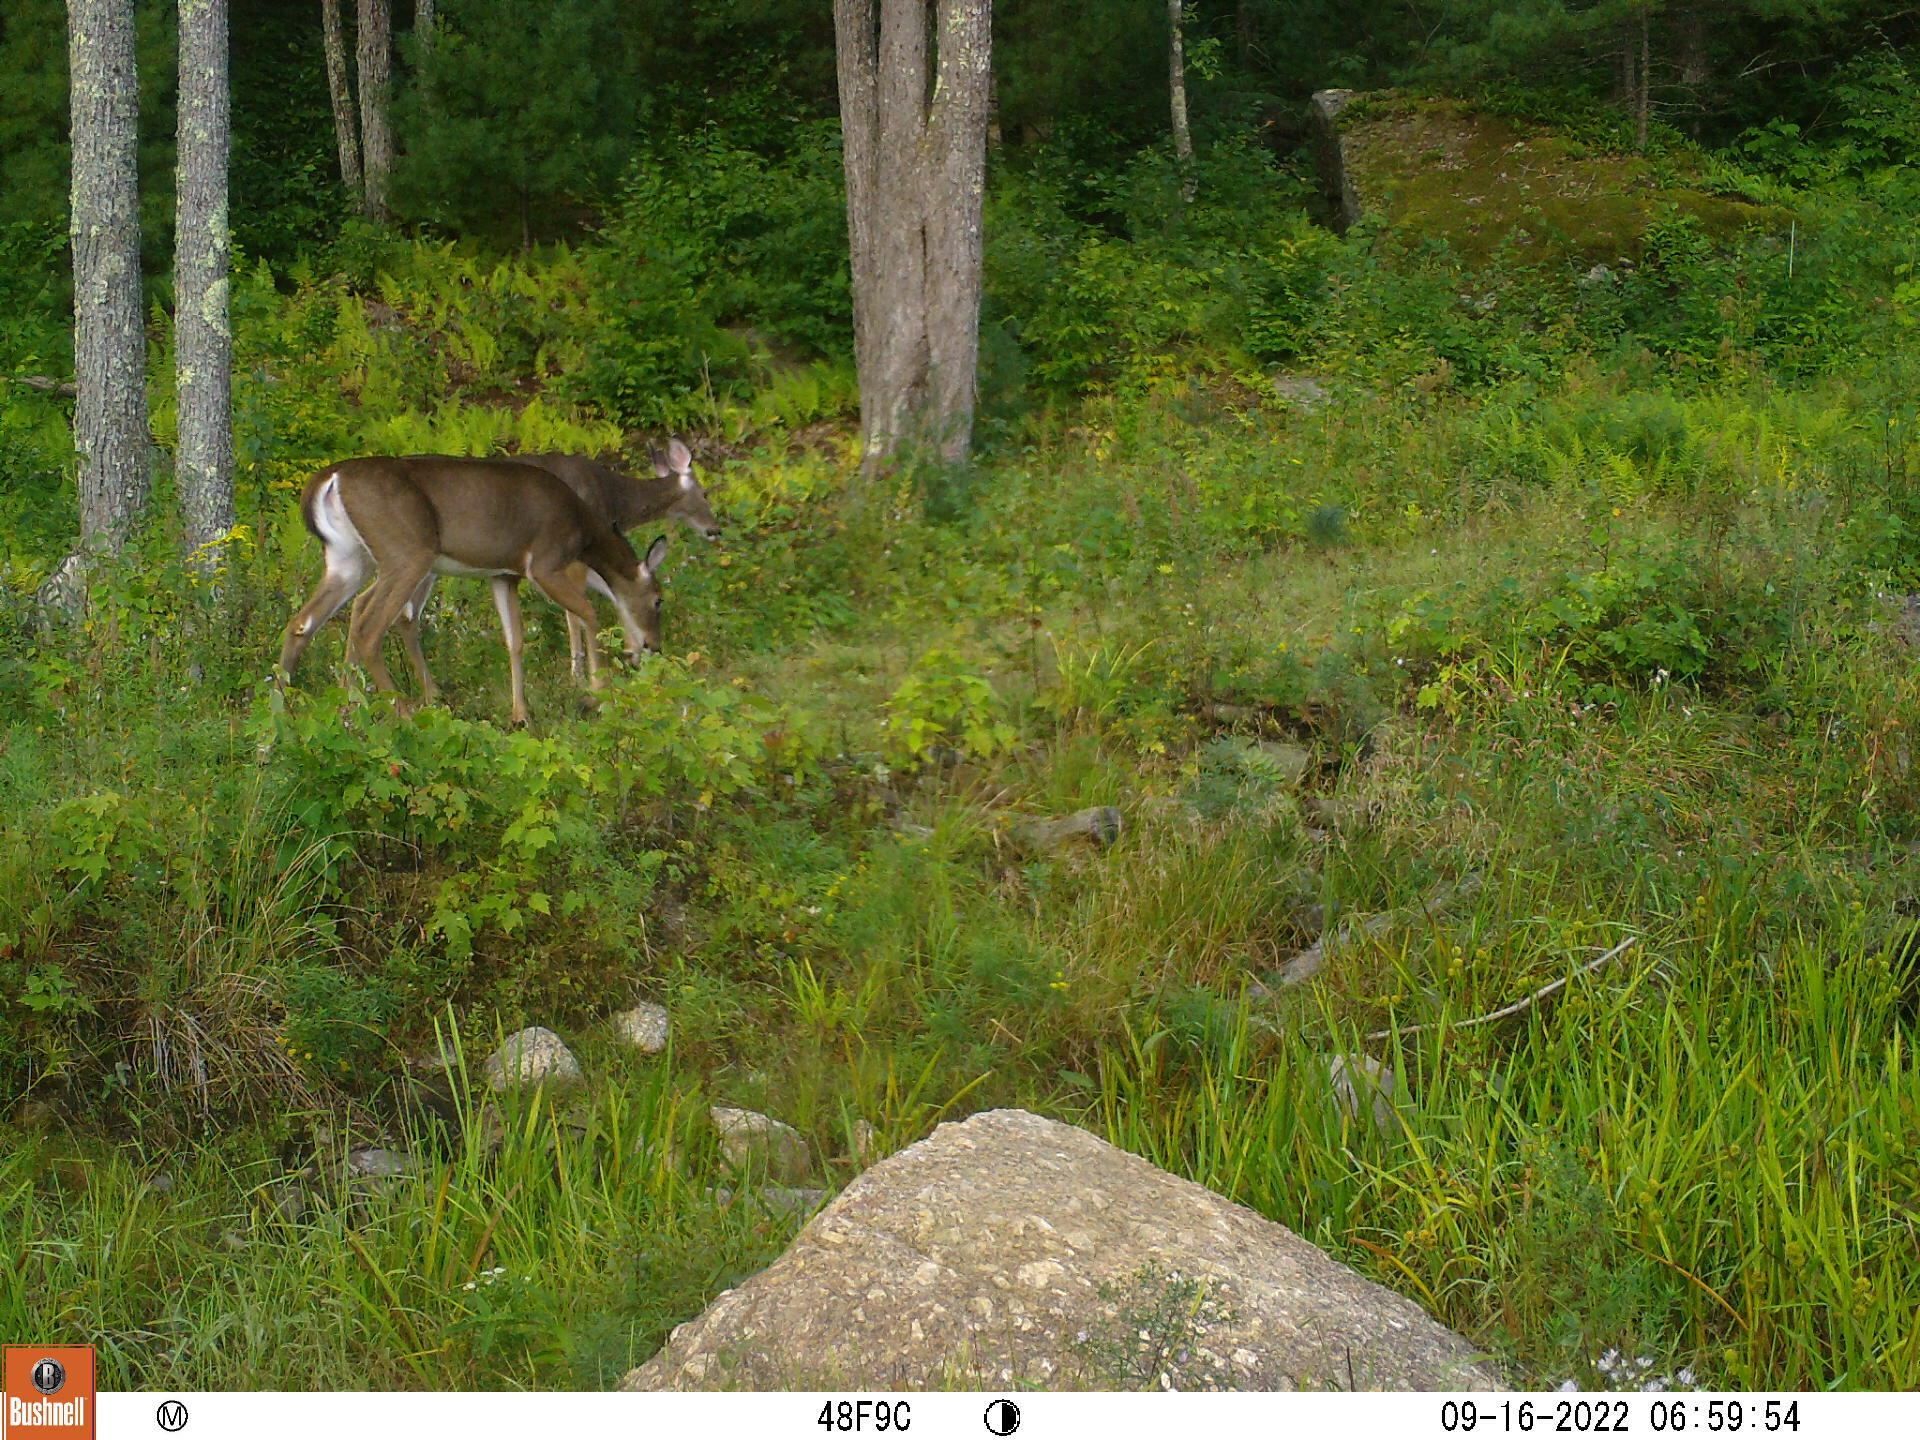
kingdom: Animalia
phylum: Chordata
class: Mammalia
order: Artiodactyla
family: Cervidae
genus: Odocoileus
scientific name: Odocoileus virginianus
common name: White-tailed deer
